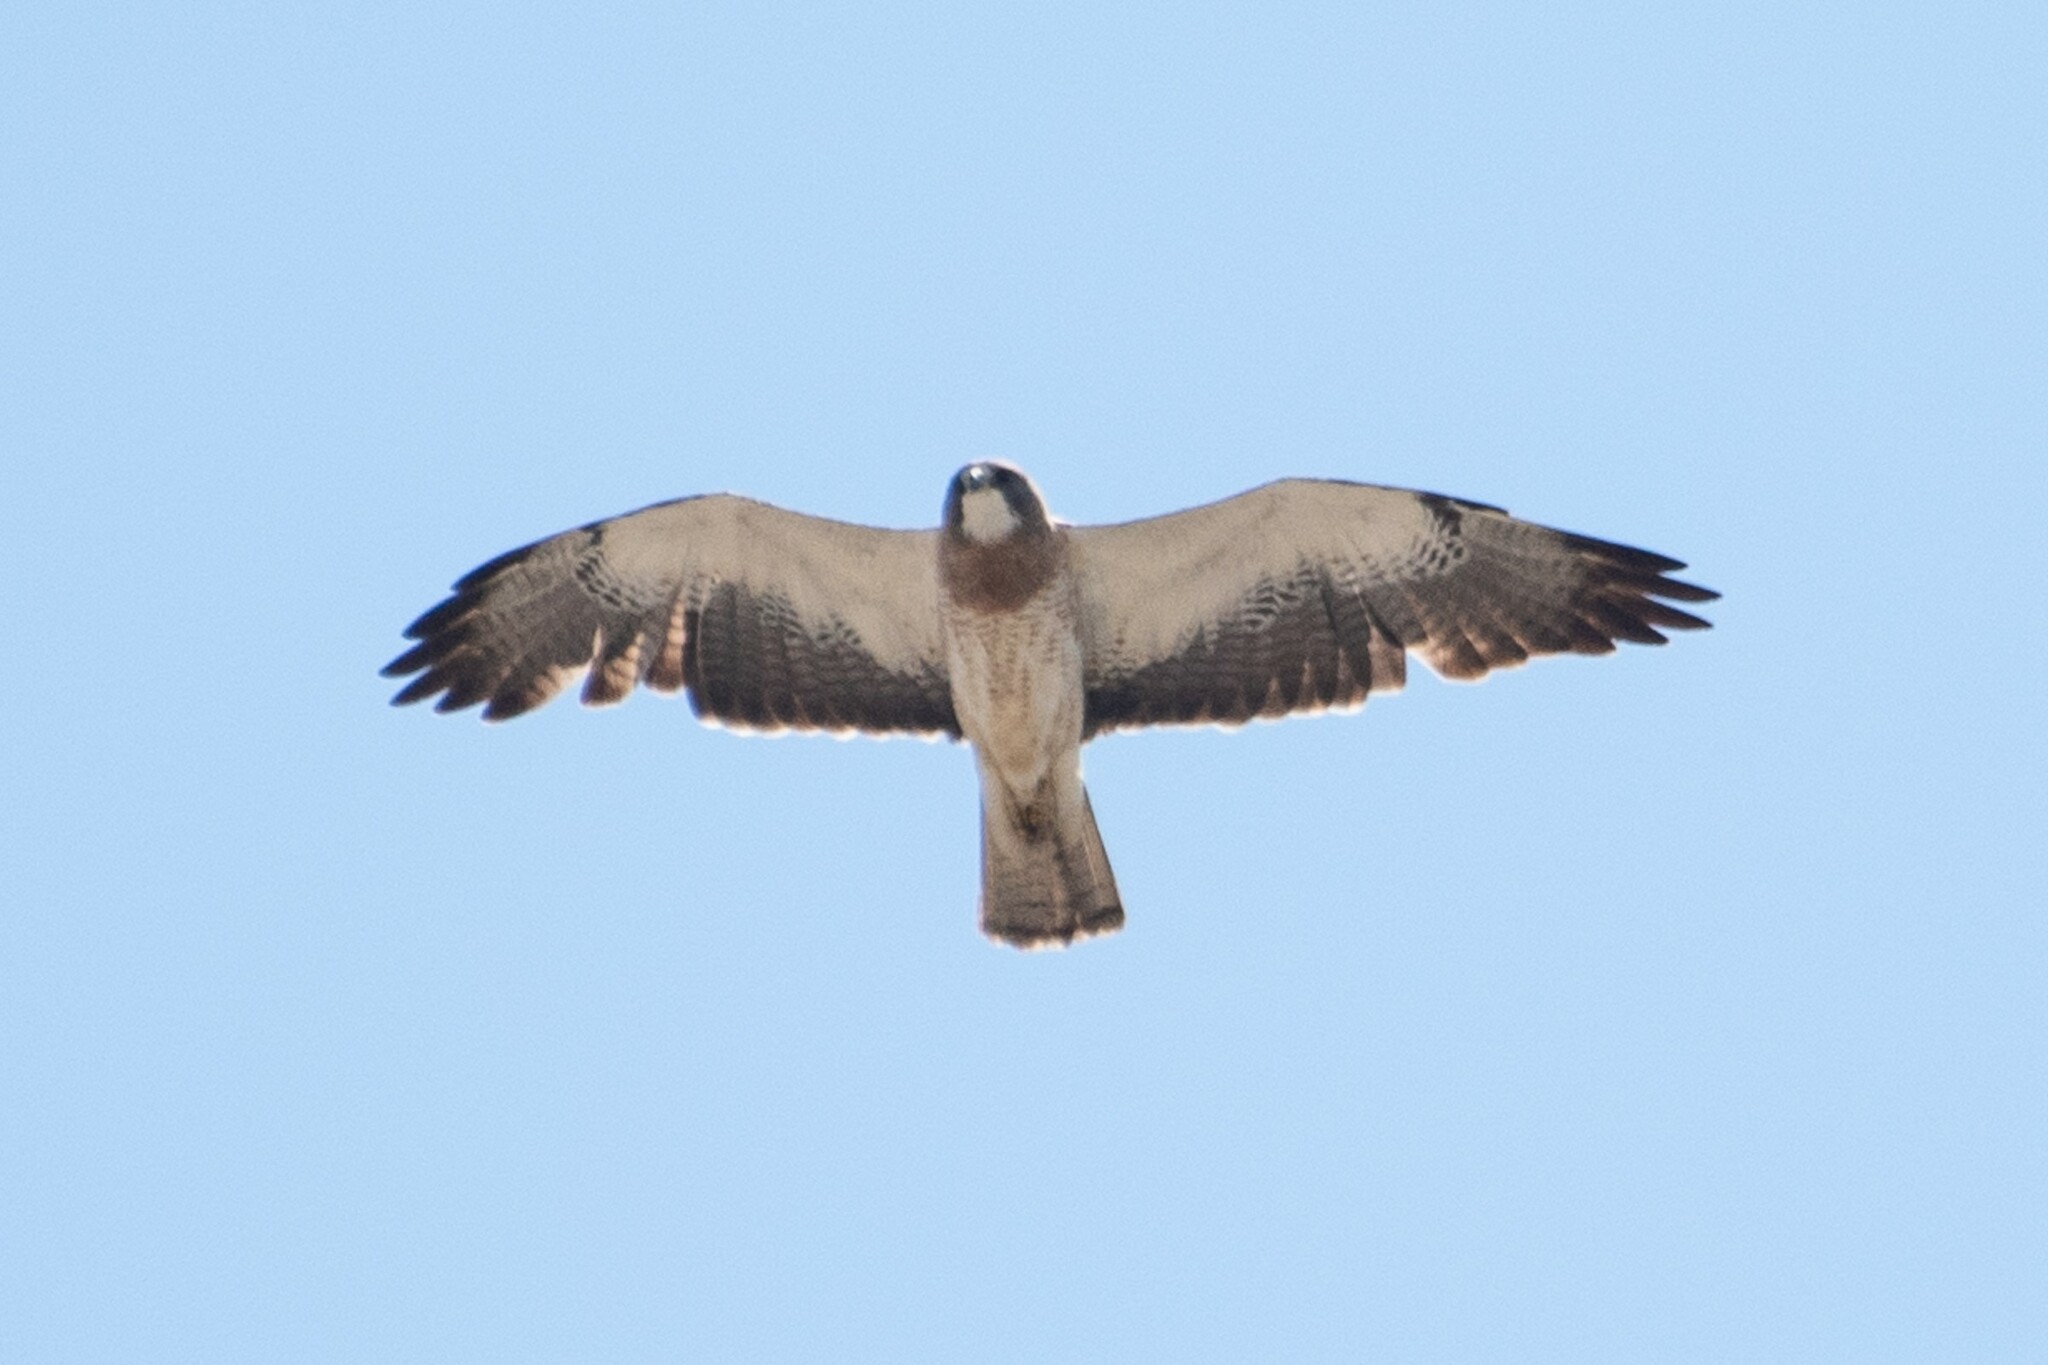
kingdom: Animalia
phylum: Chordata
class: Aves
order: Accipitriformes
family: Accipitridae
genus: Buteo
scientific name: Buteo swainsoni
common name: Swainson's hawk
